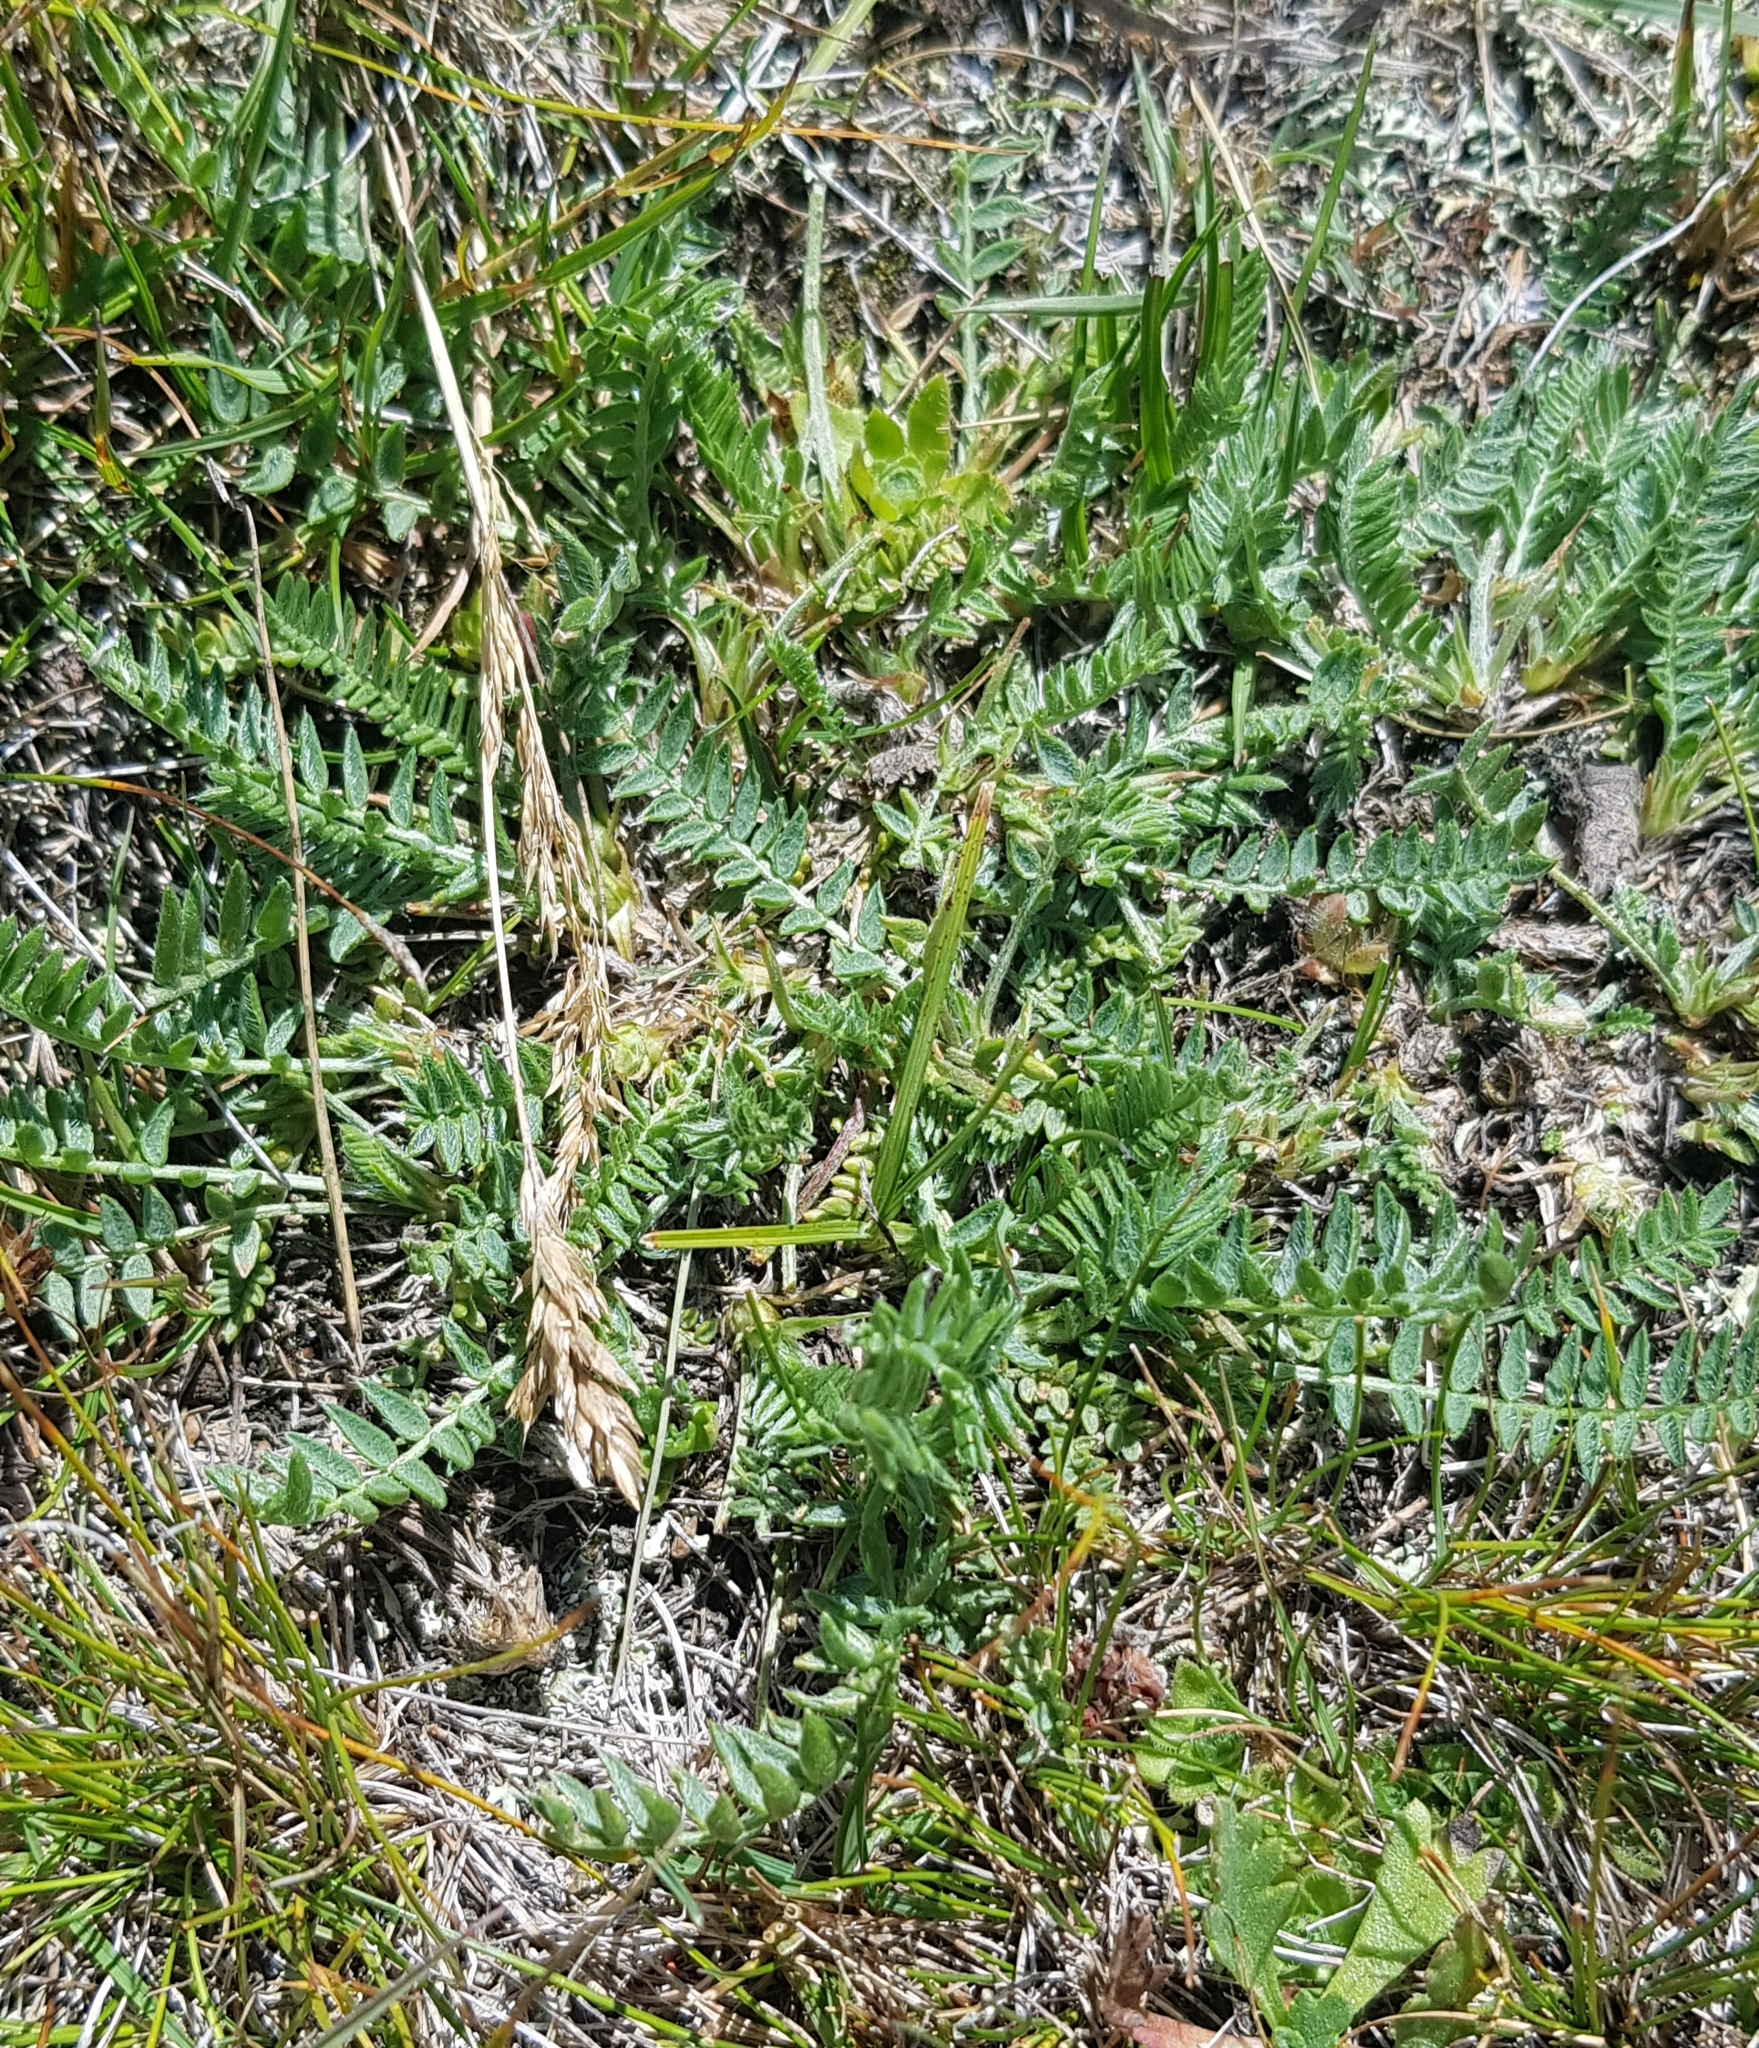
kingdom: Plantae
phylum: Tracheophyta
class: Magnoliopsida
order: Fabales
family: Fabaceae
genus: Oxytropis
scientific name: Oxytropis deflexa
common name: Stemmed oxytrope
